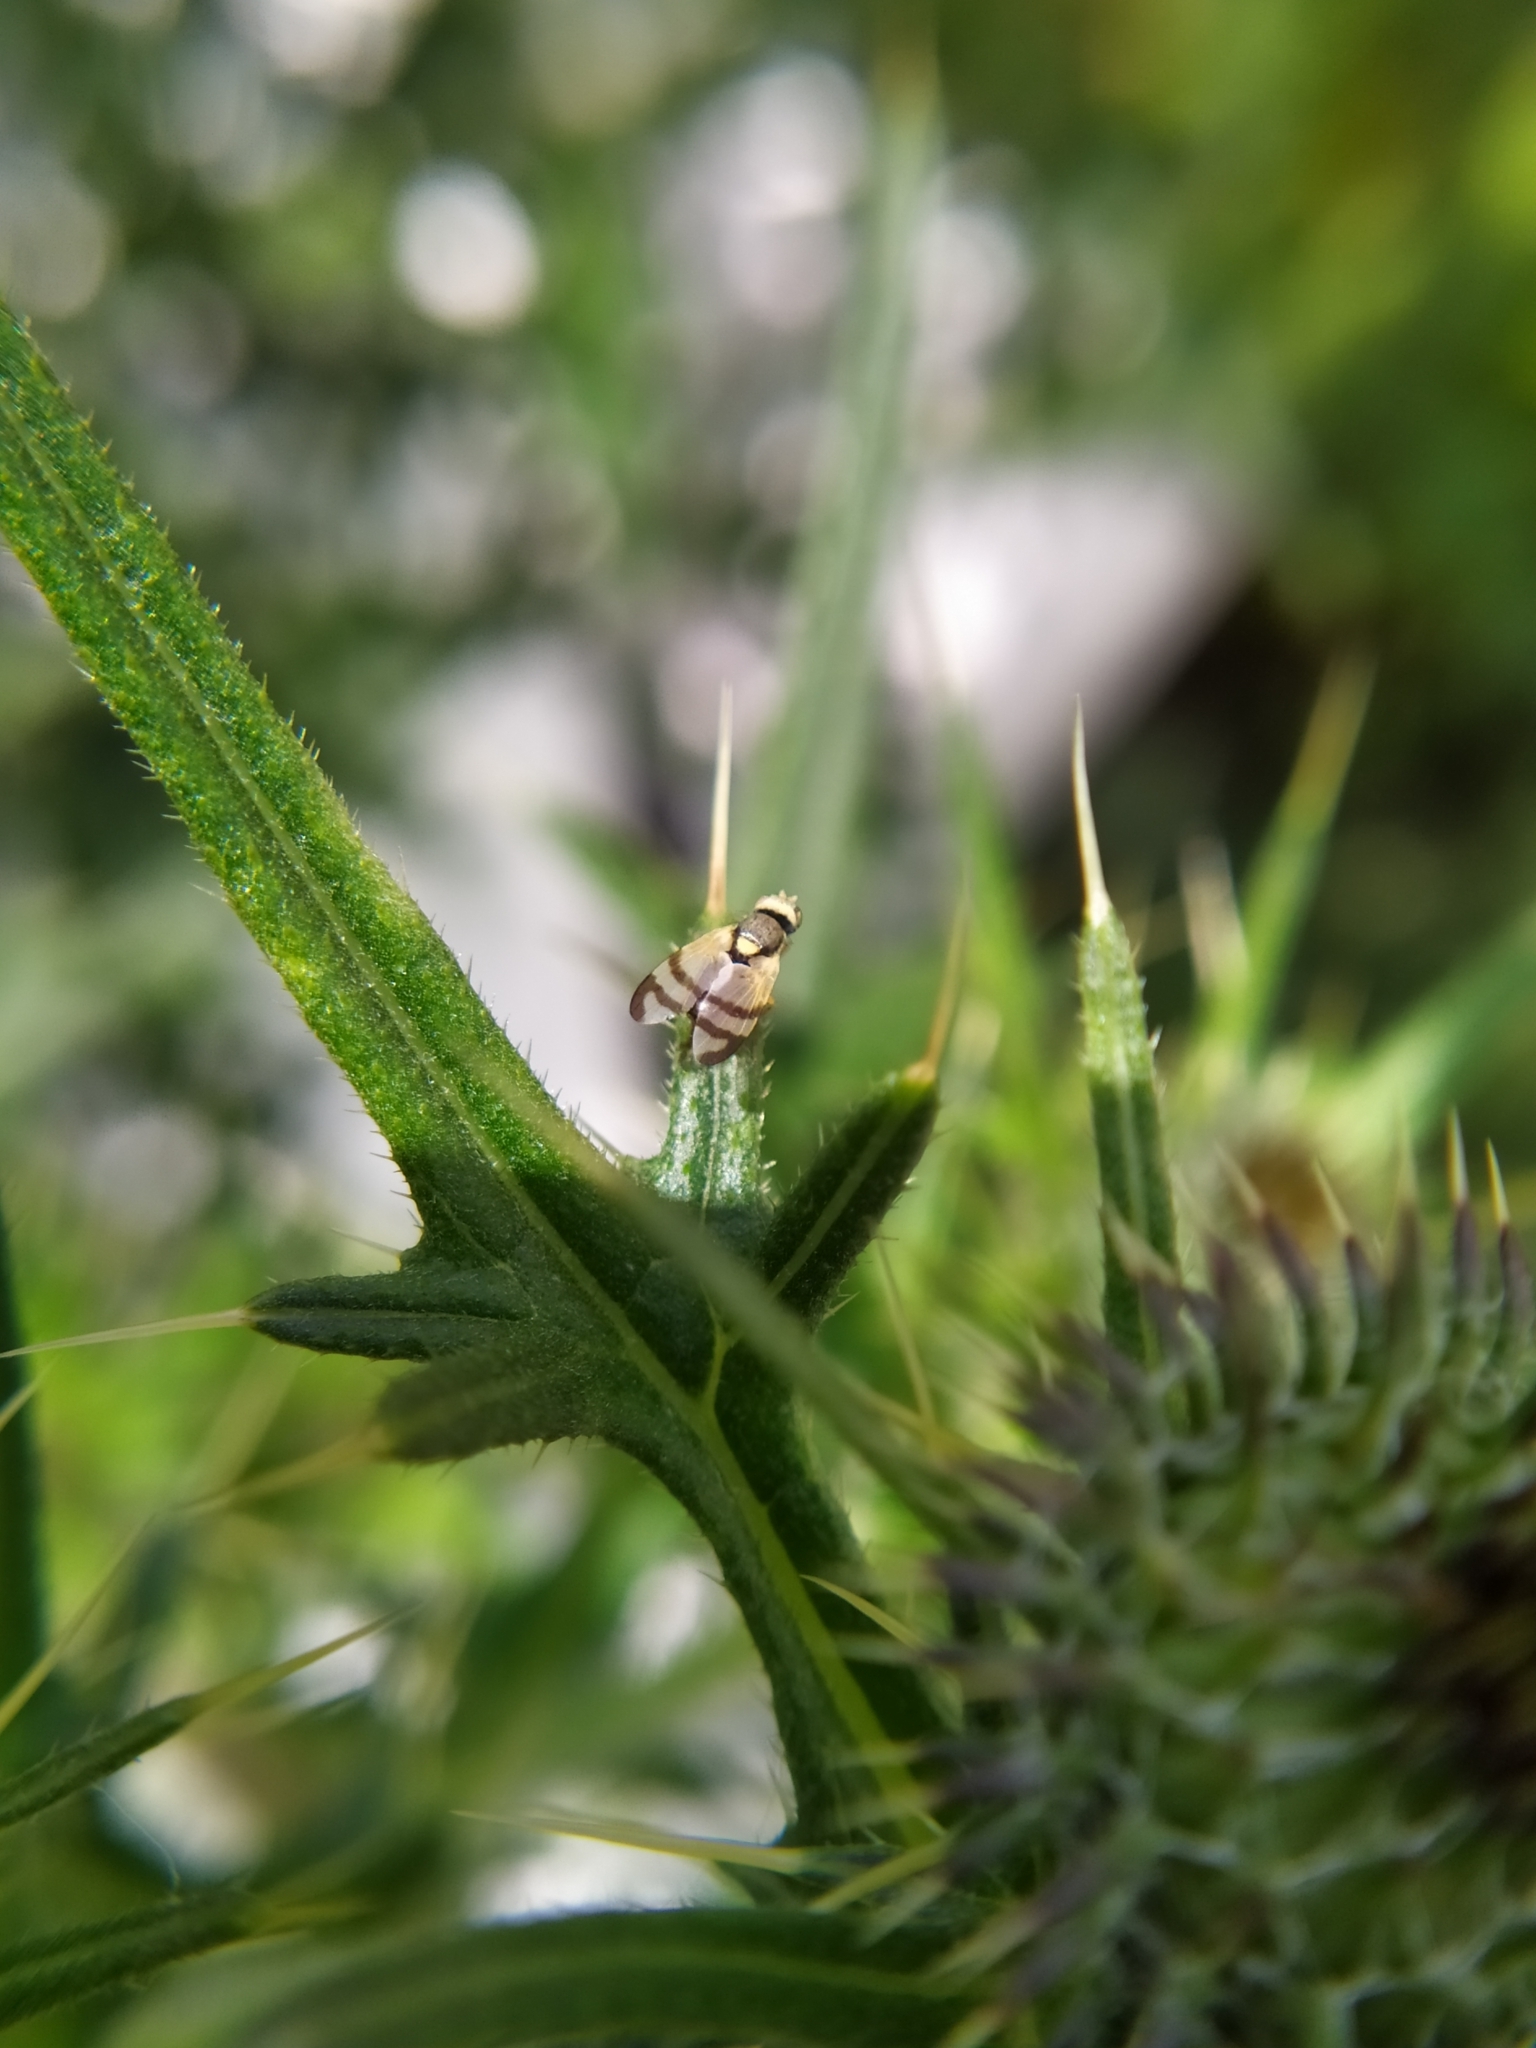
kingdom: Animalia
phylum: Arthropoda
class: Insecta
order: Diptera
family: Tephritidae
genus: Urophora
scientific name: Urophora stylata
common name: Fruit fly
